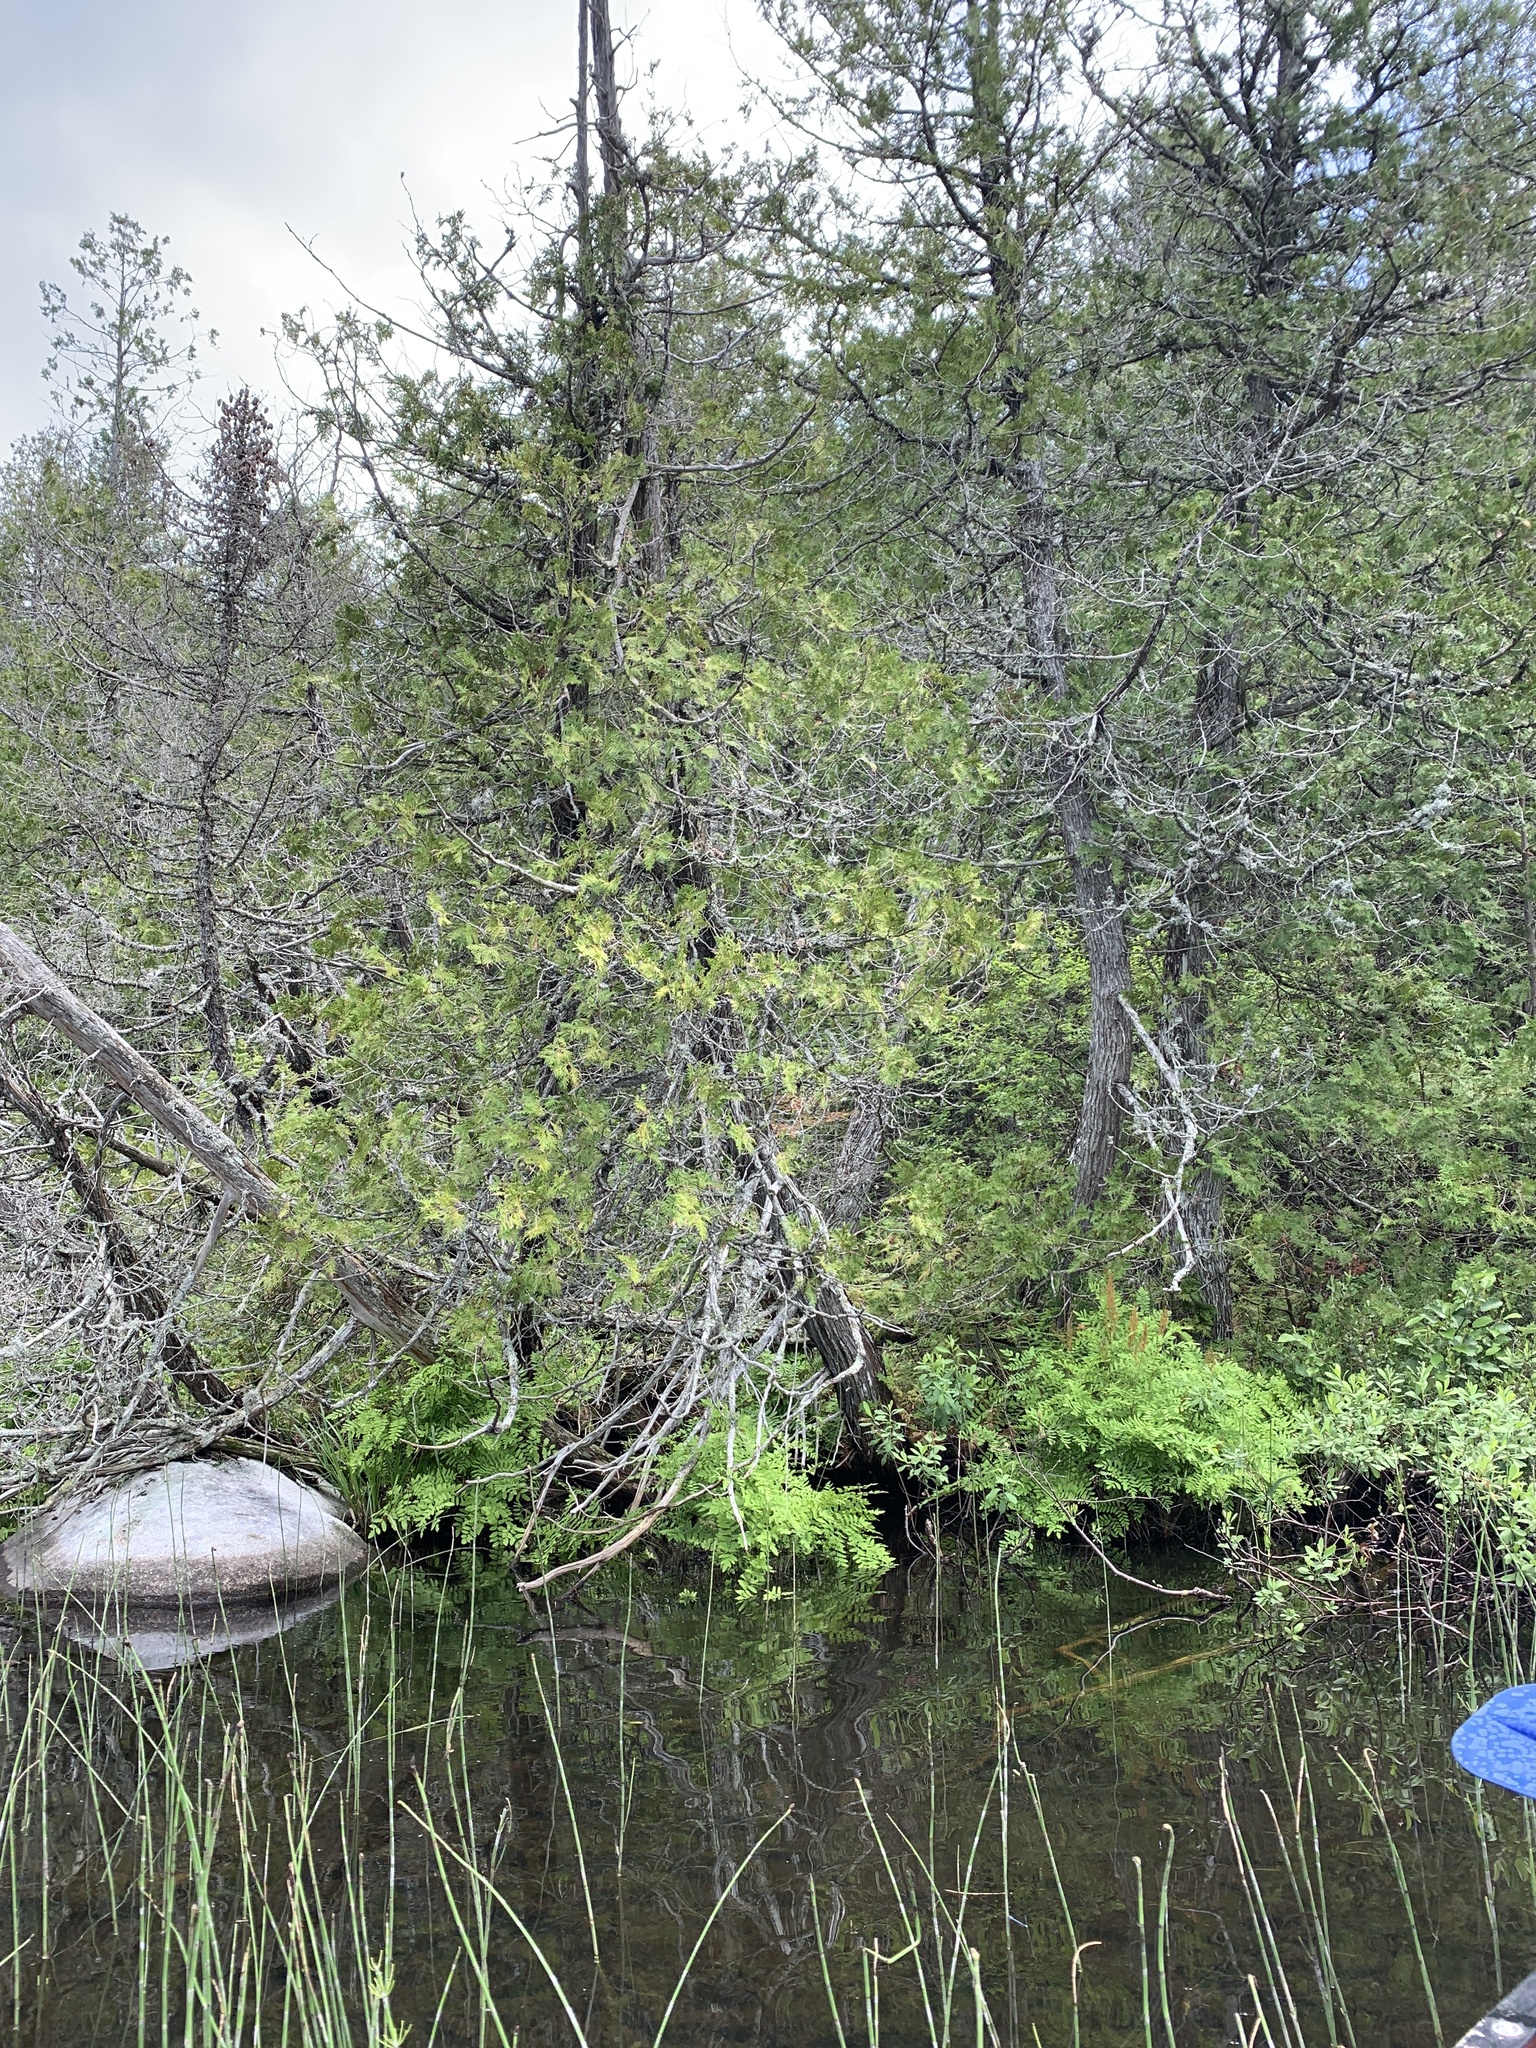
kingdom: Plantae
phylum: Tracheophyta
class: Pinopsida
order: Pinales
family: Cupressaceae
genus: Thuja
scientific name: Thuja occidentalis
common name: Northern white-cedar
